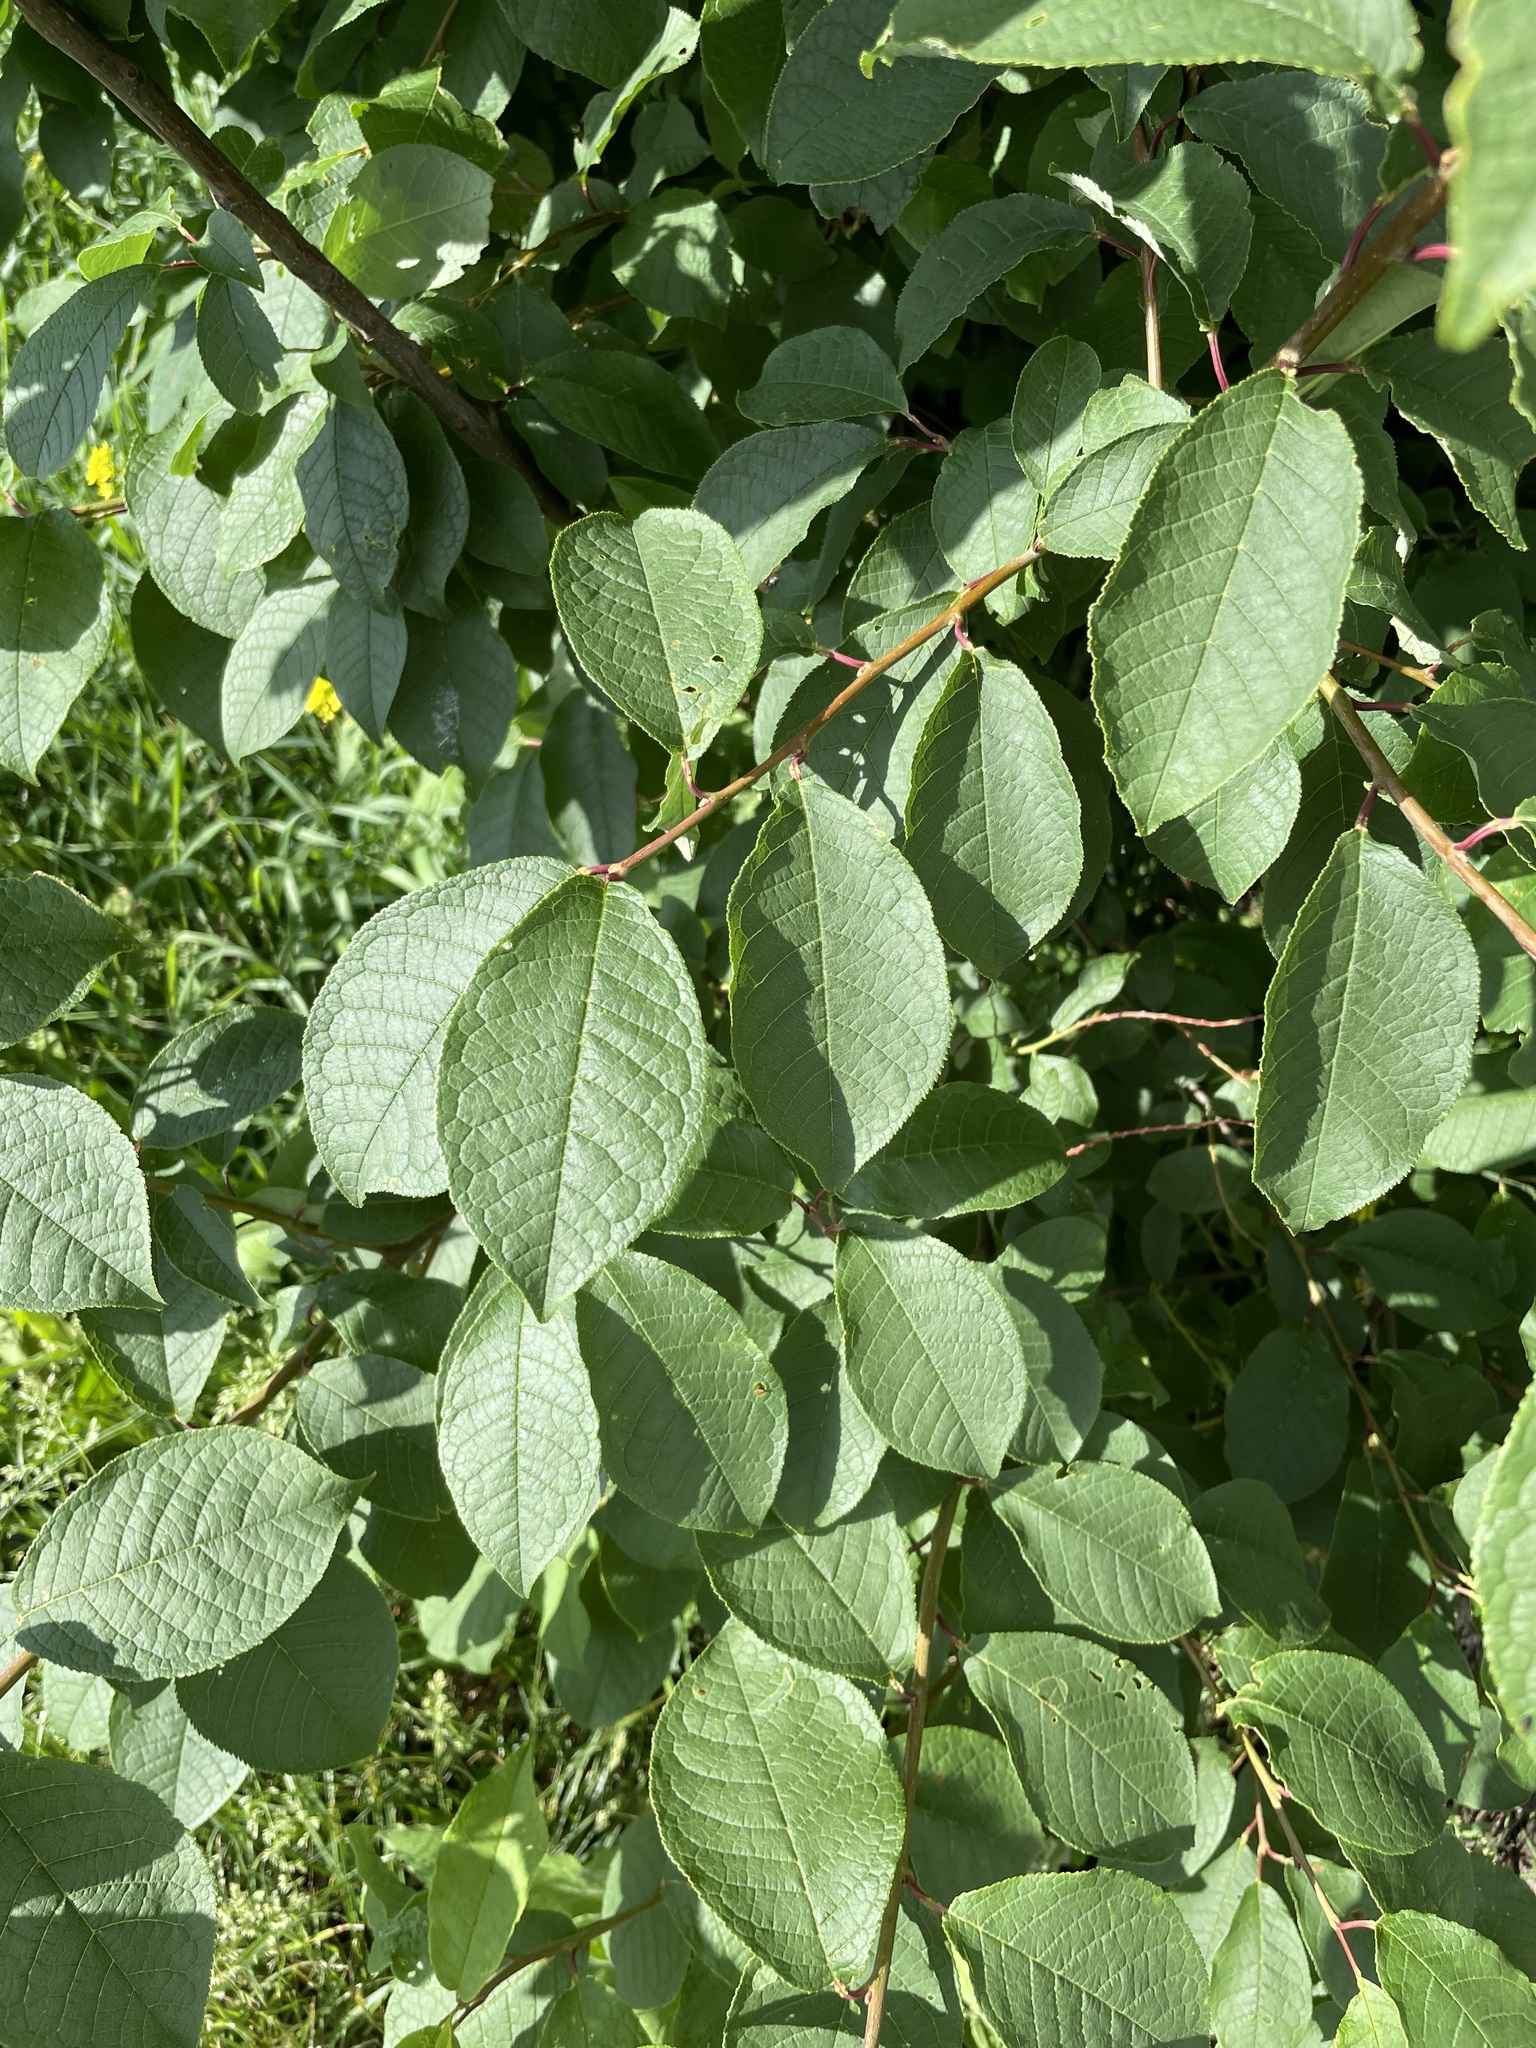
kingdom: Plantae
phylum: Tracheophyta
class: Magnoliopsida
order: Rosales
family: Rosaceae
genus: Prunus
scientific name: Prunus padus
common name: Bird cherry
